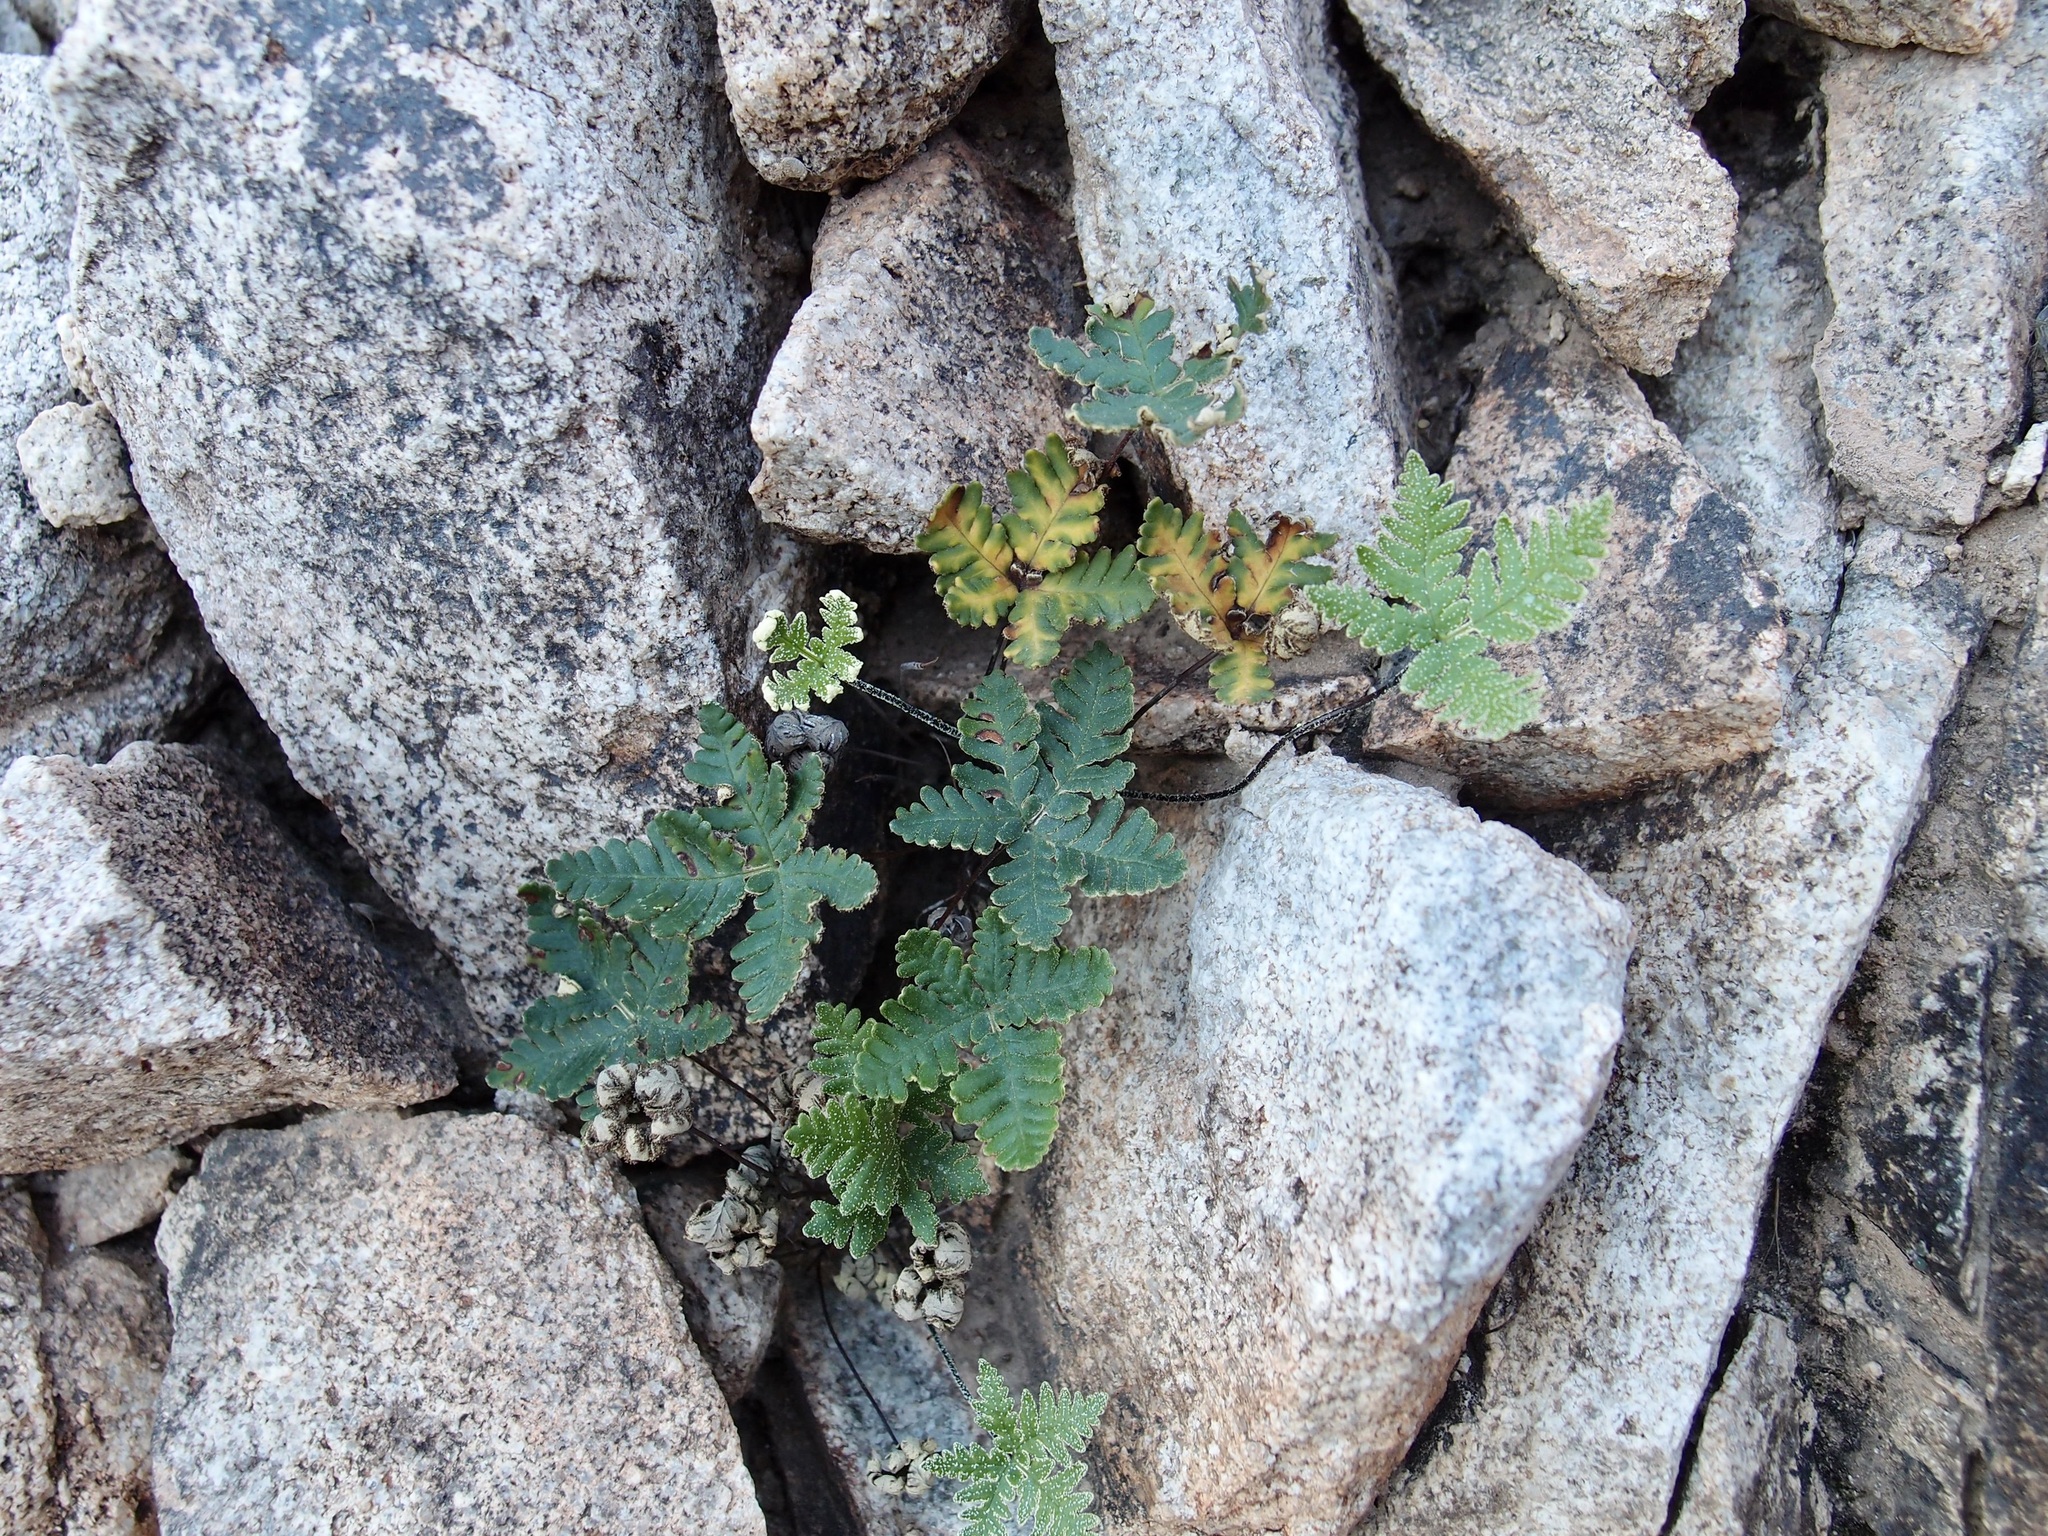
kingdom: Plantae
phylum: Tracheophyta
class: Polypodiopsida
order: Polypodiales
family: Pteridaceae
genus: Notholaena
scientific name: Notholaena standleyi
